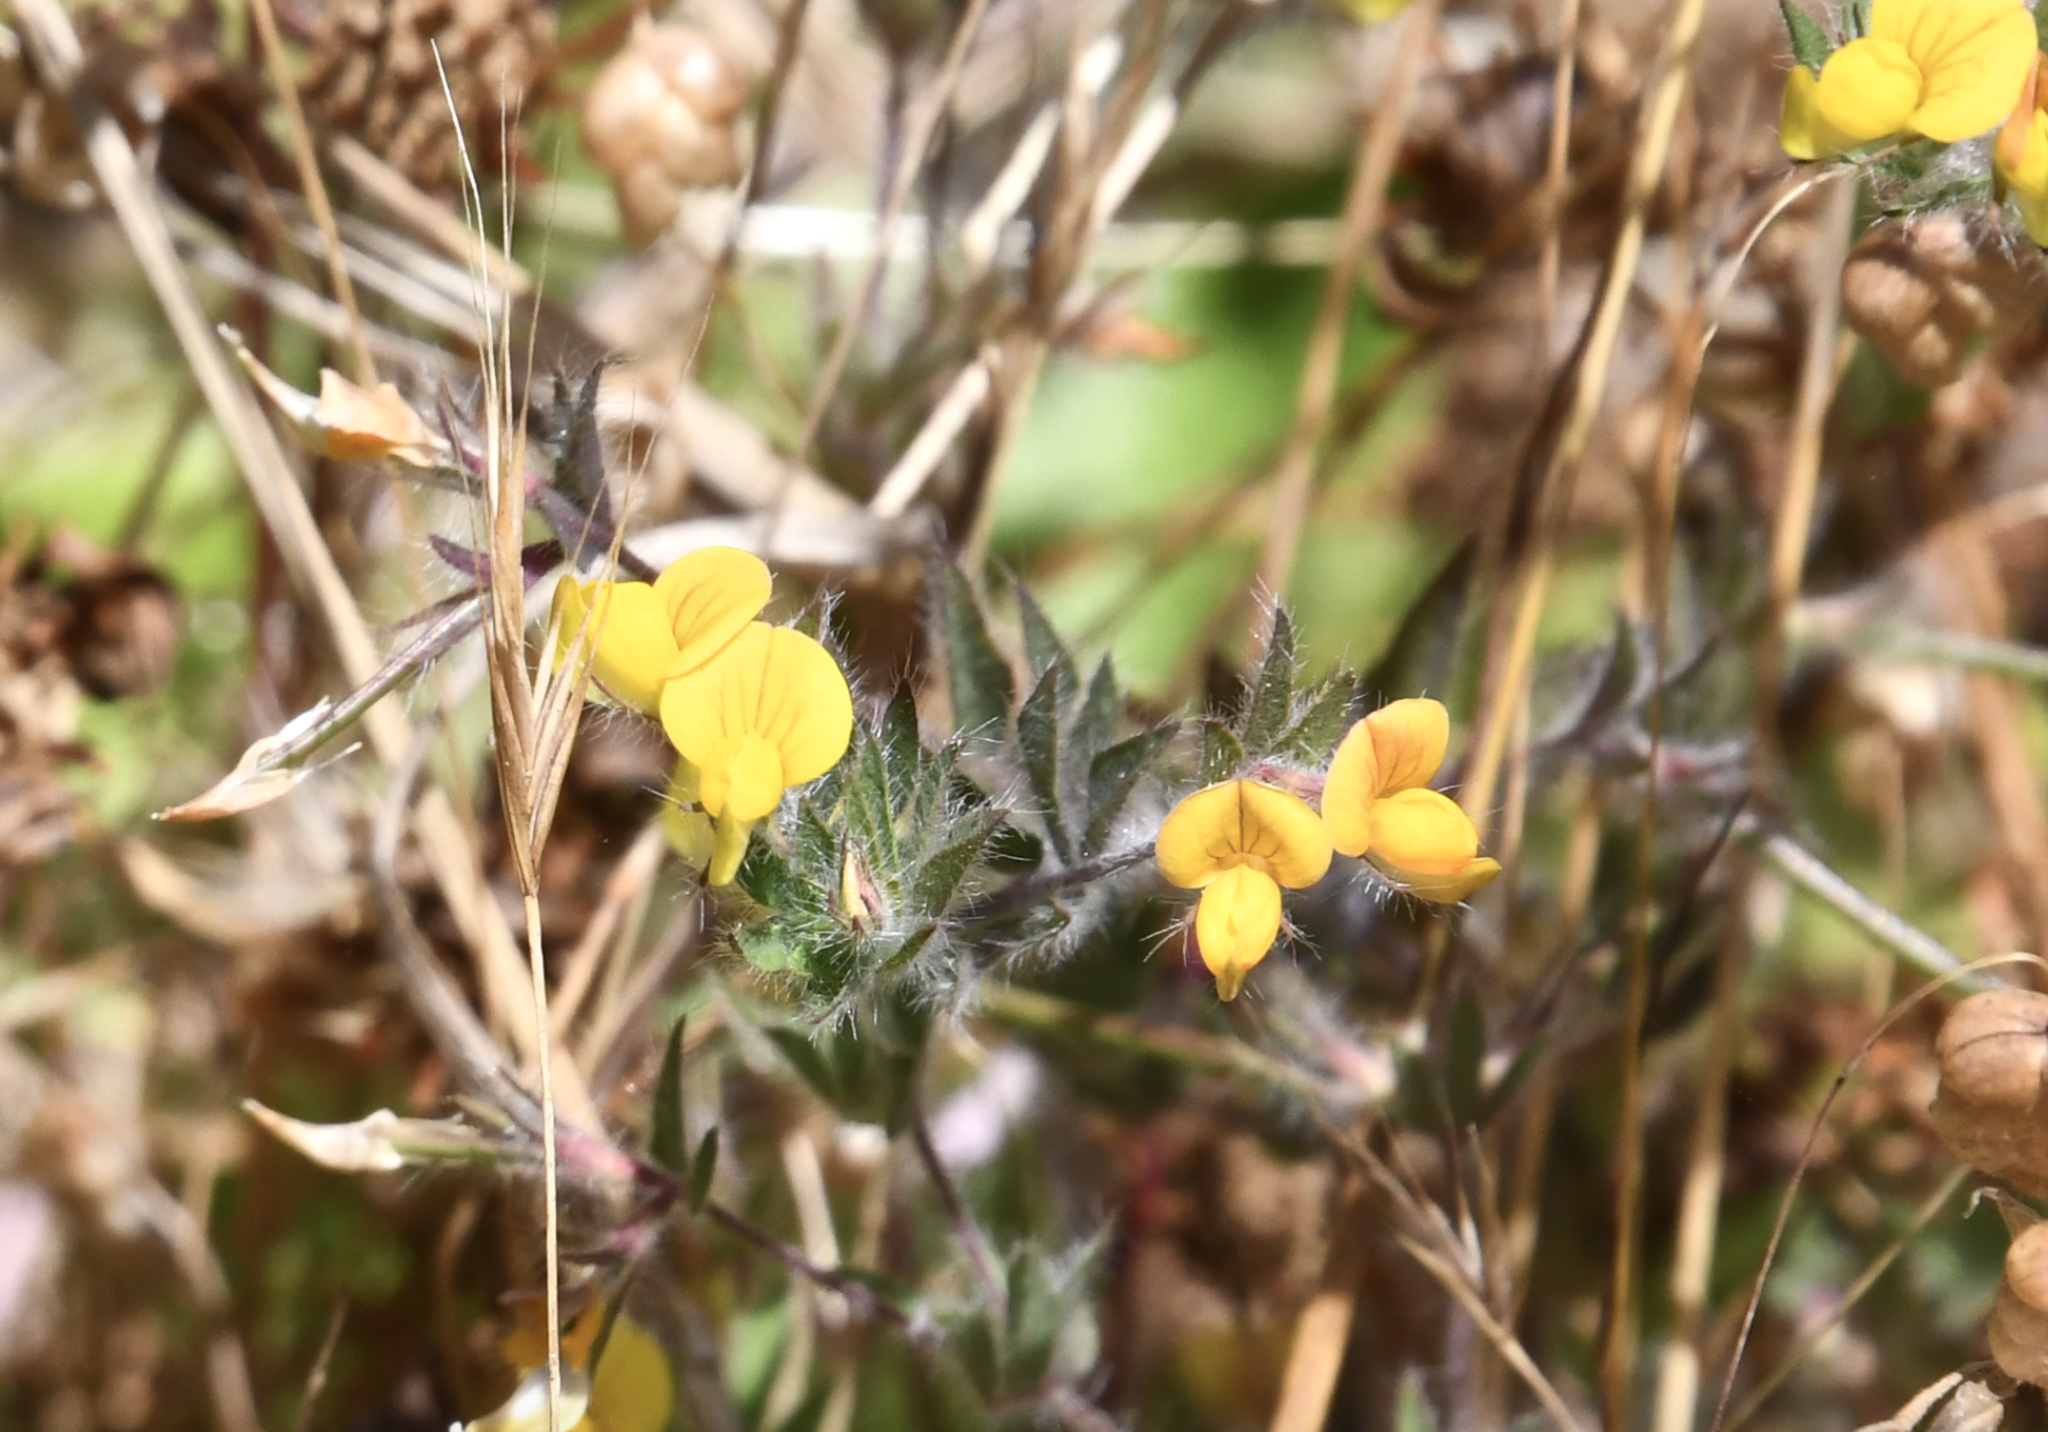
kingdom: Plantae
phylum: Tracheophyta
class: Magnoliopsida
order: Fabales
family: Fabaceae
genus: Lotus
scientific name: Lotus angustissimus
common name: Slender bird's-foot trefoil
